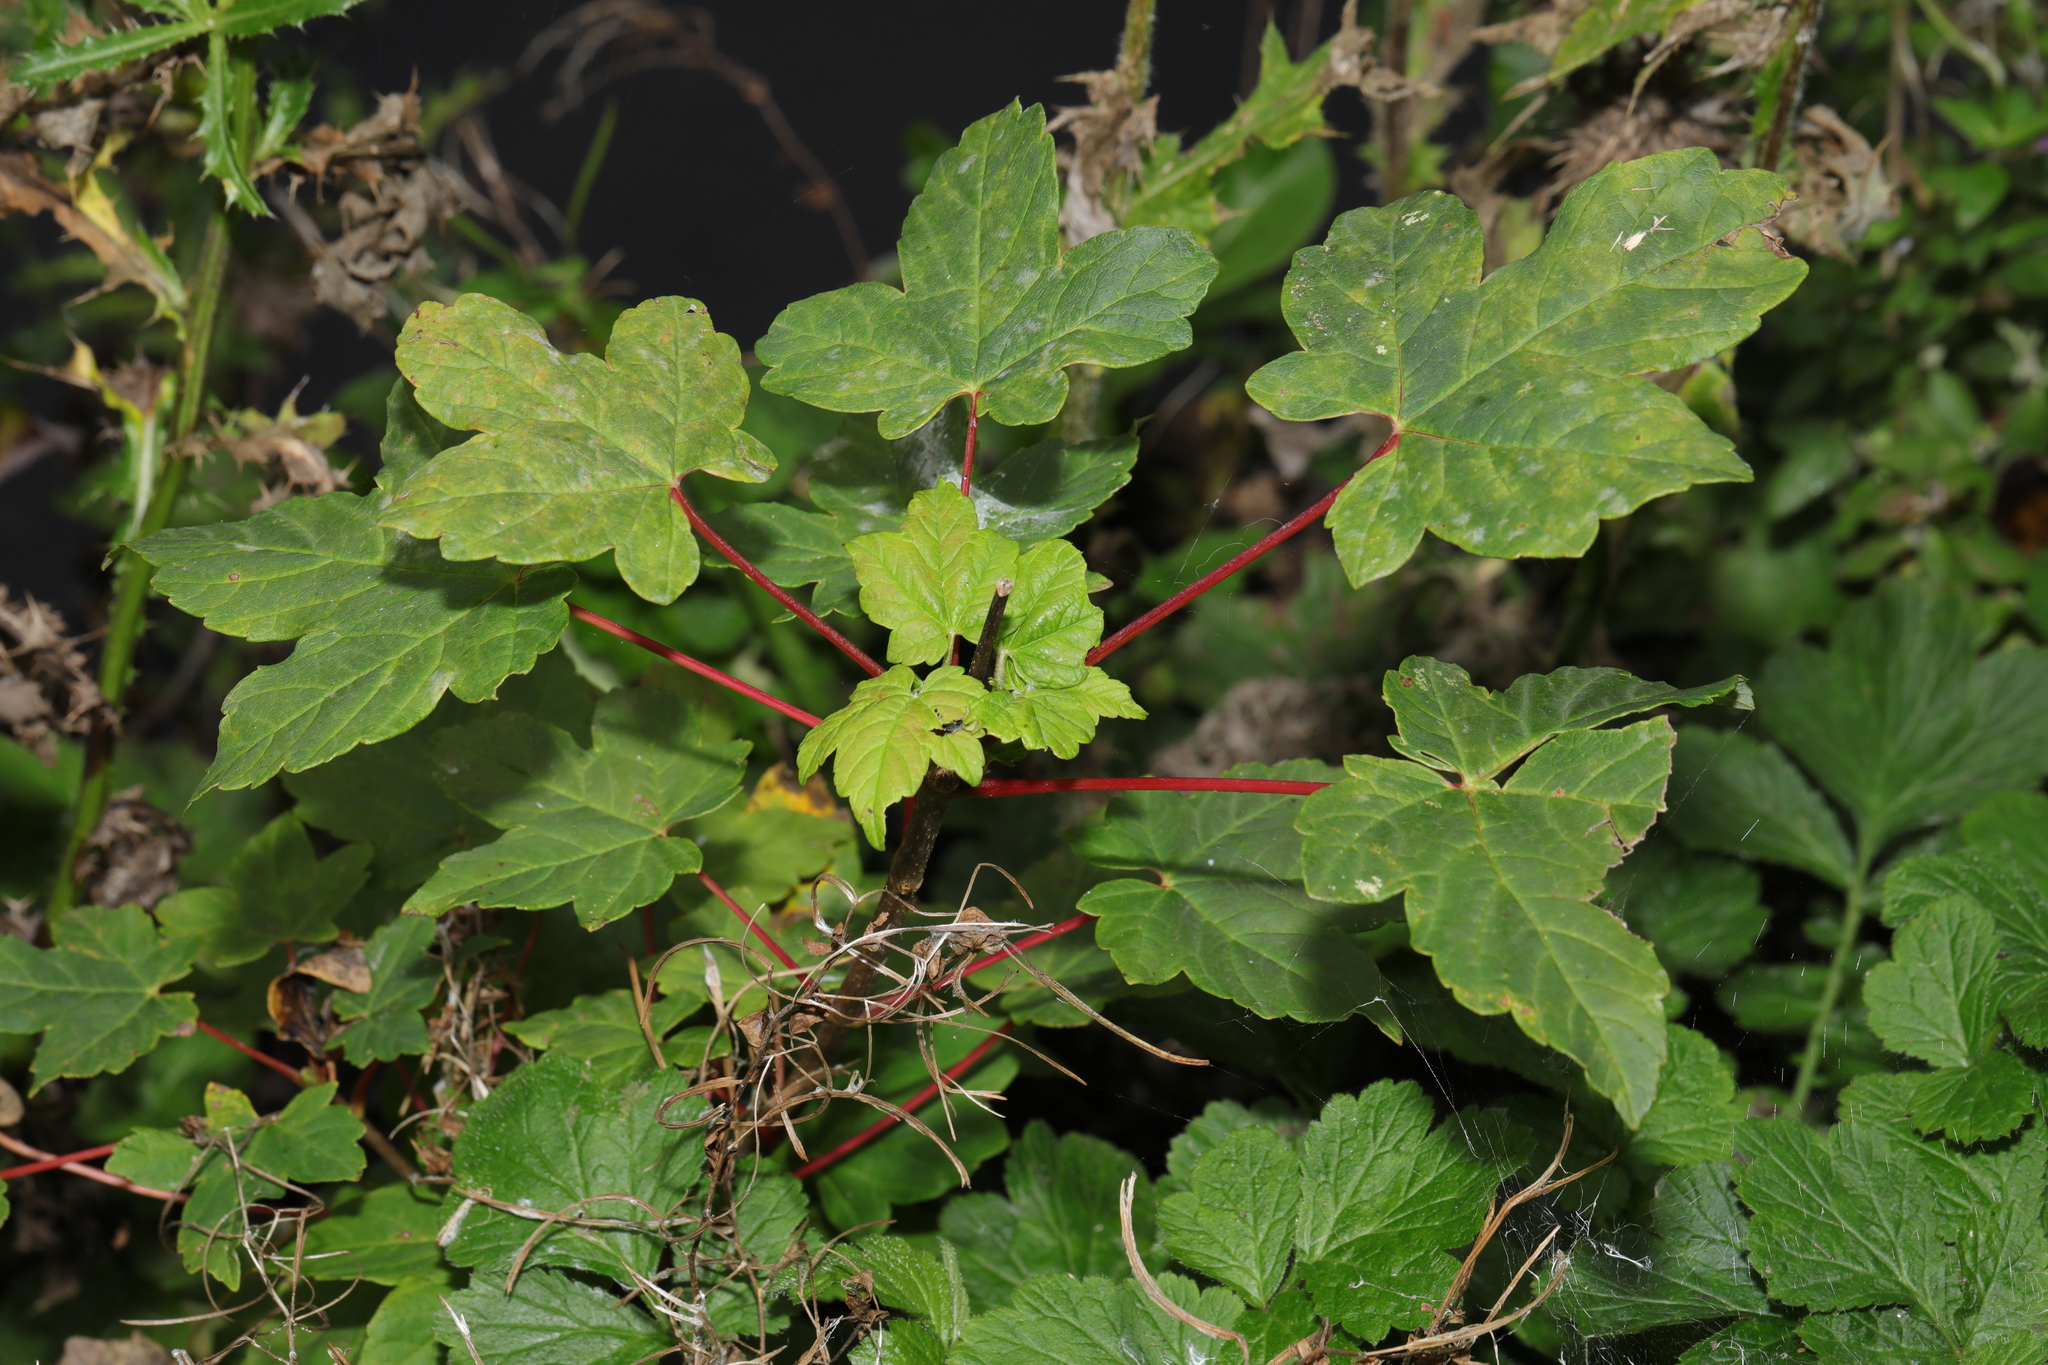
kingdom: Plantae
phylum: Tracheophyta
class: Magnoliopsida
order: Sapindales
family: Sapindaceae
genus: Acer
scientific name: Acer pseudoplatanus
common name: Sycamore
